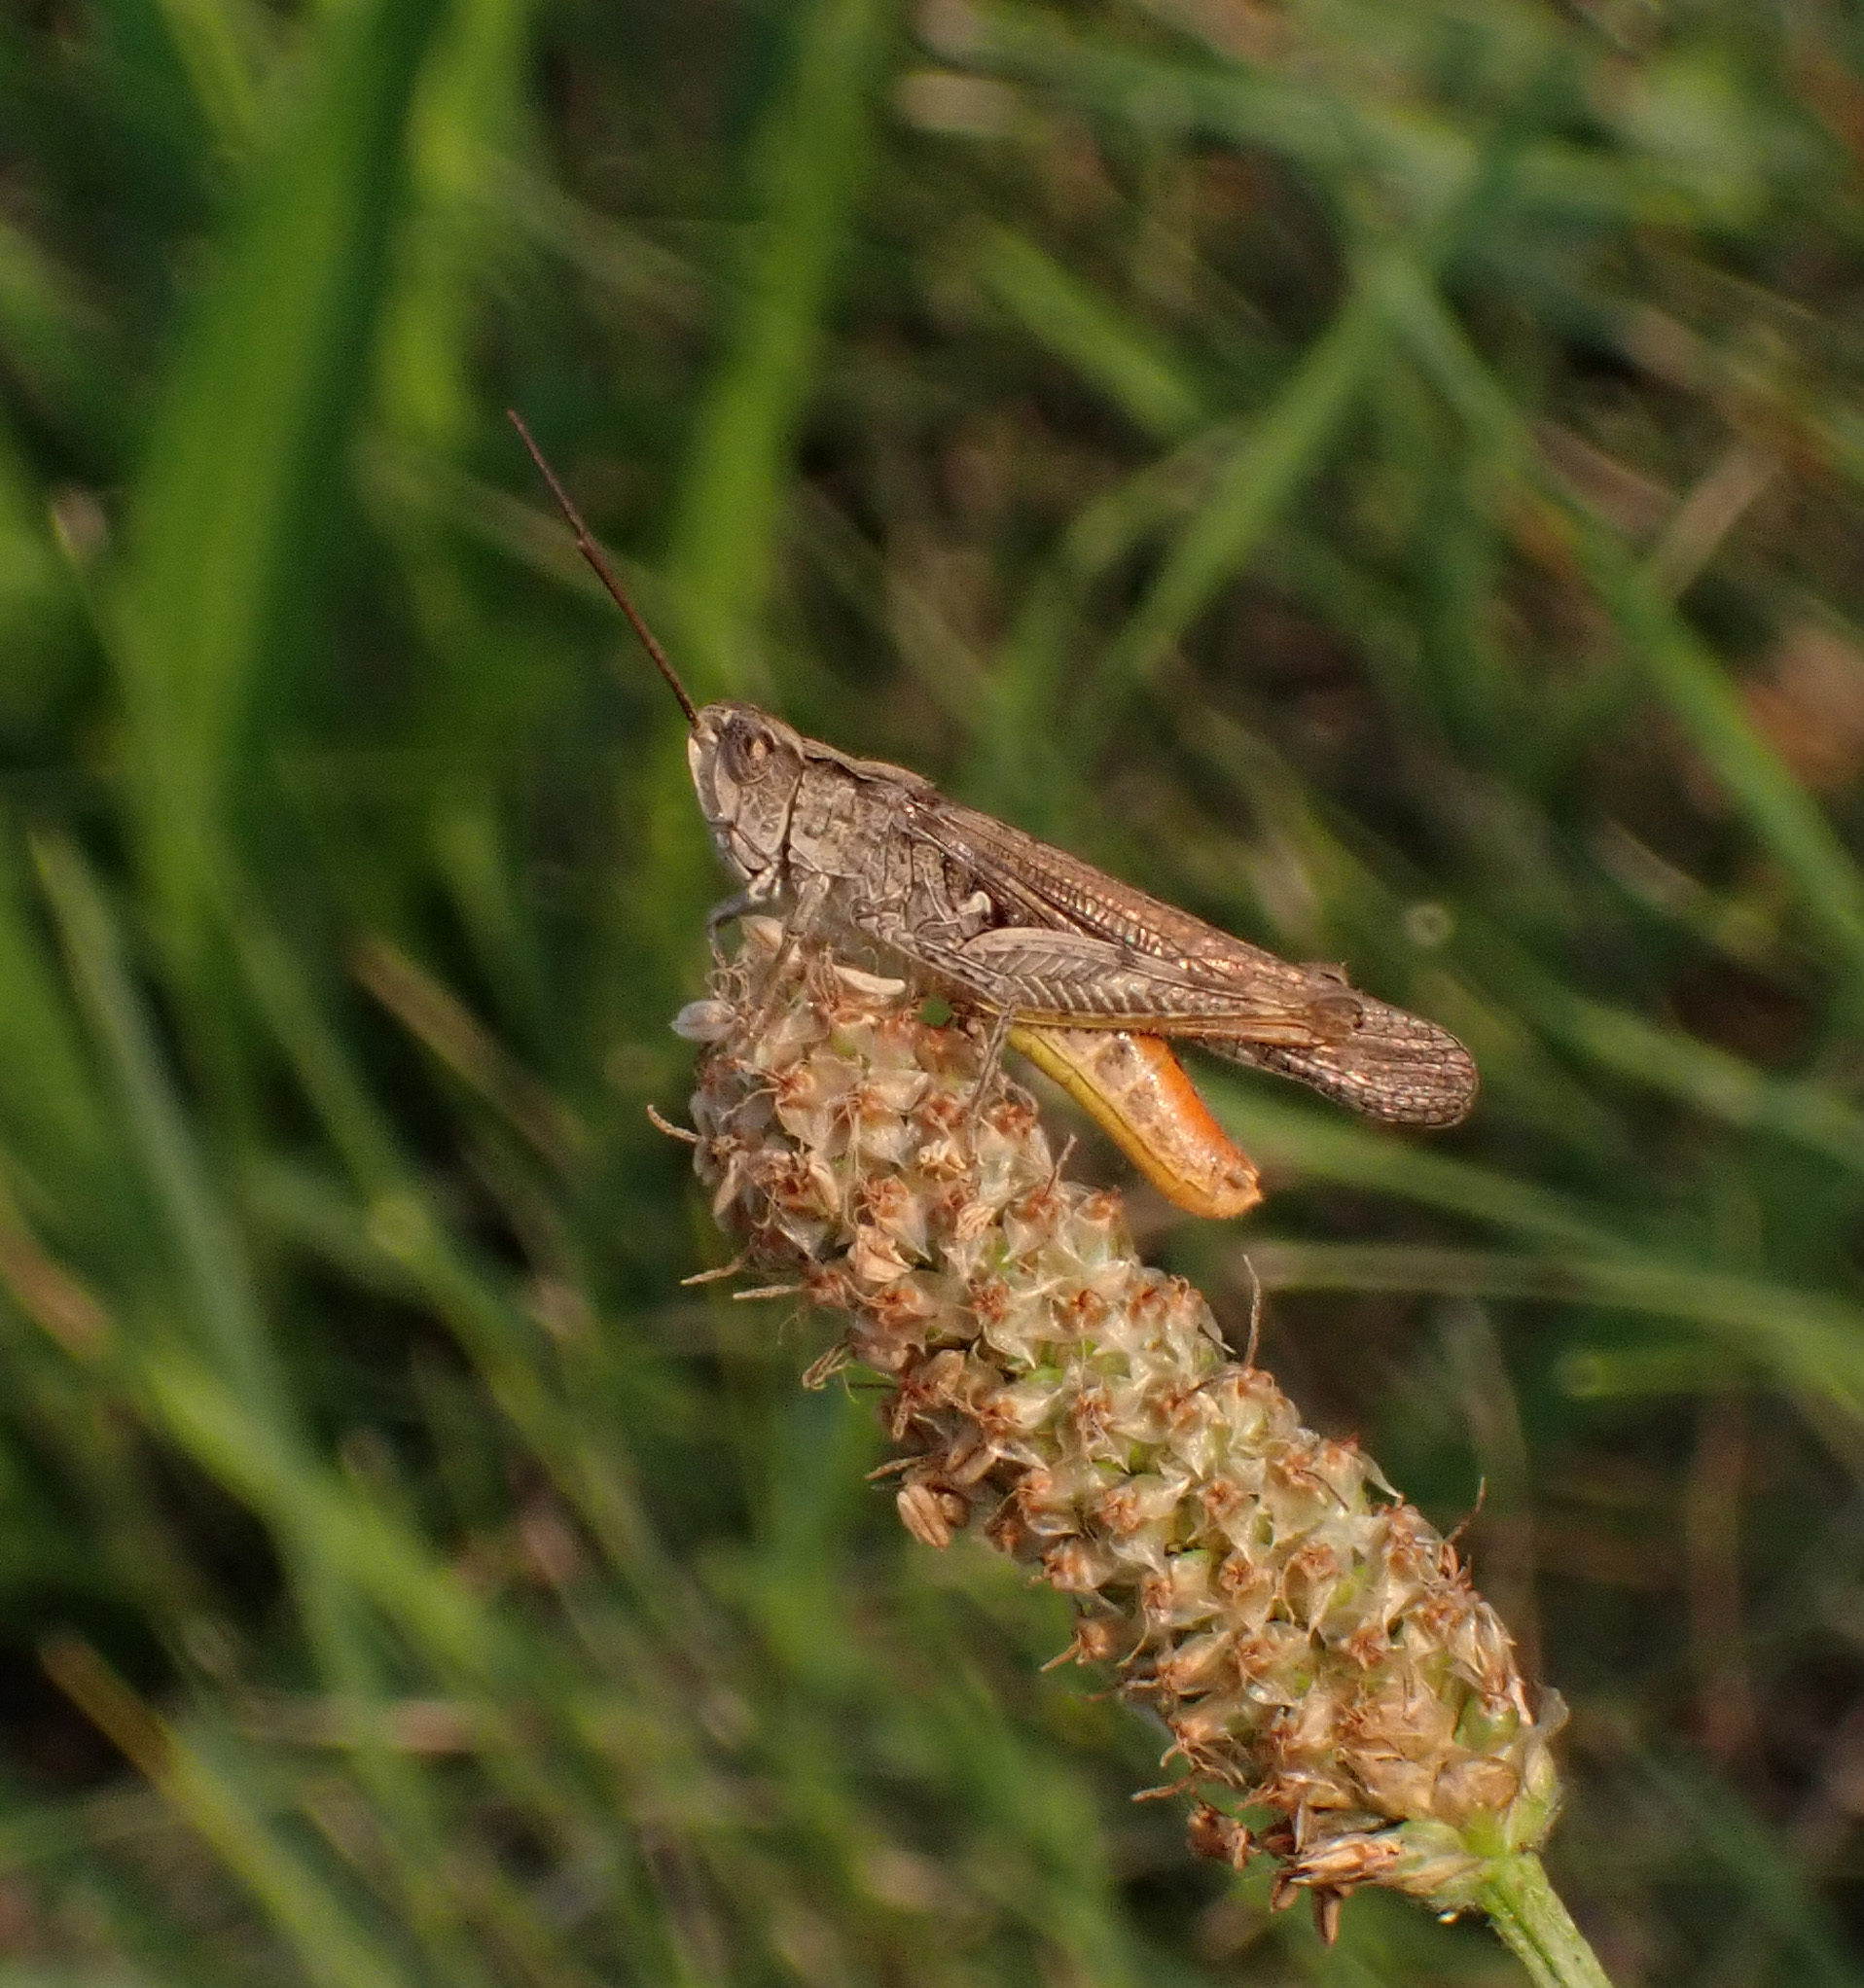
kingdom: Animalia
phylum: Arthropoda
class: Insecta
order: Orthoptera
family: Acrididae
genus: Chorthippus
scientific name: Chorthippus brunneus
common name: Field grasshopper
